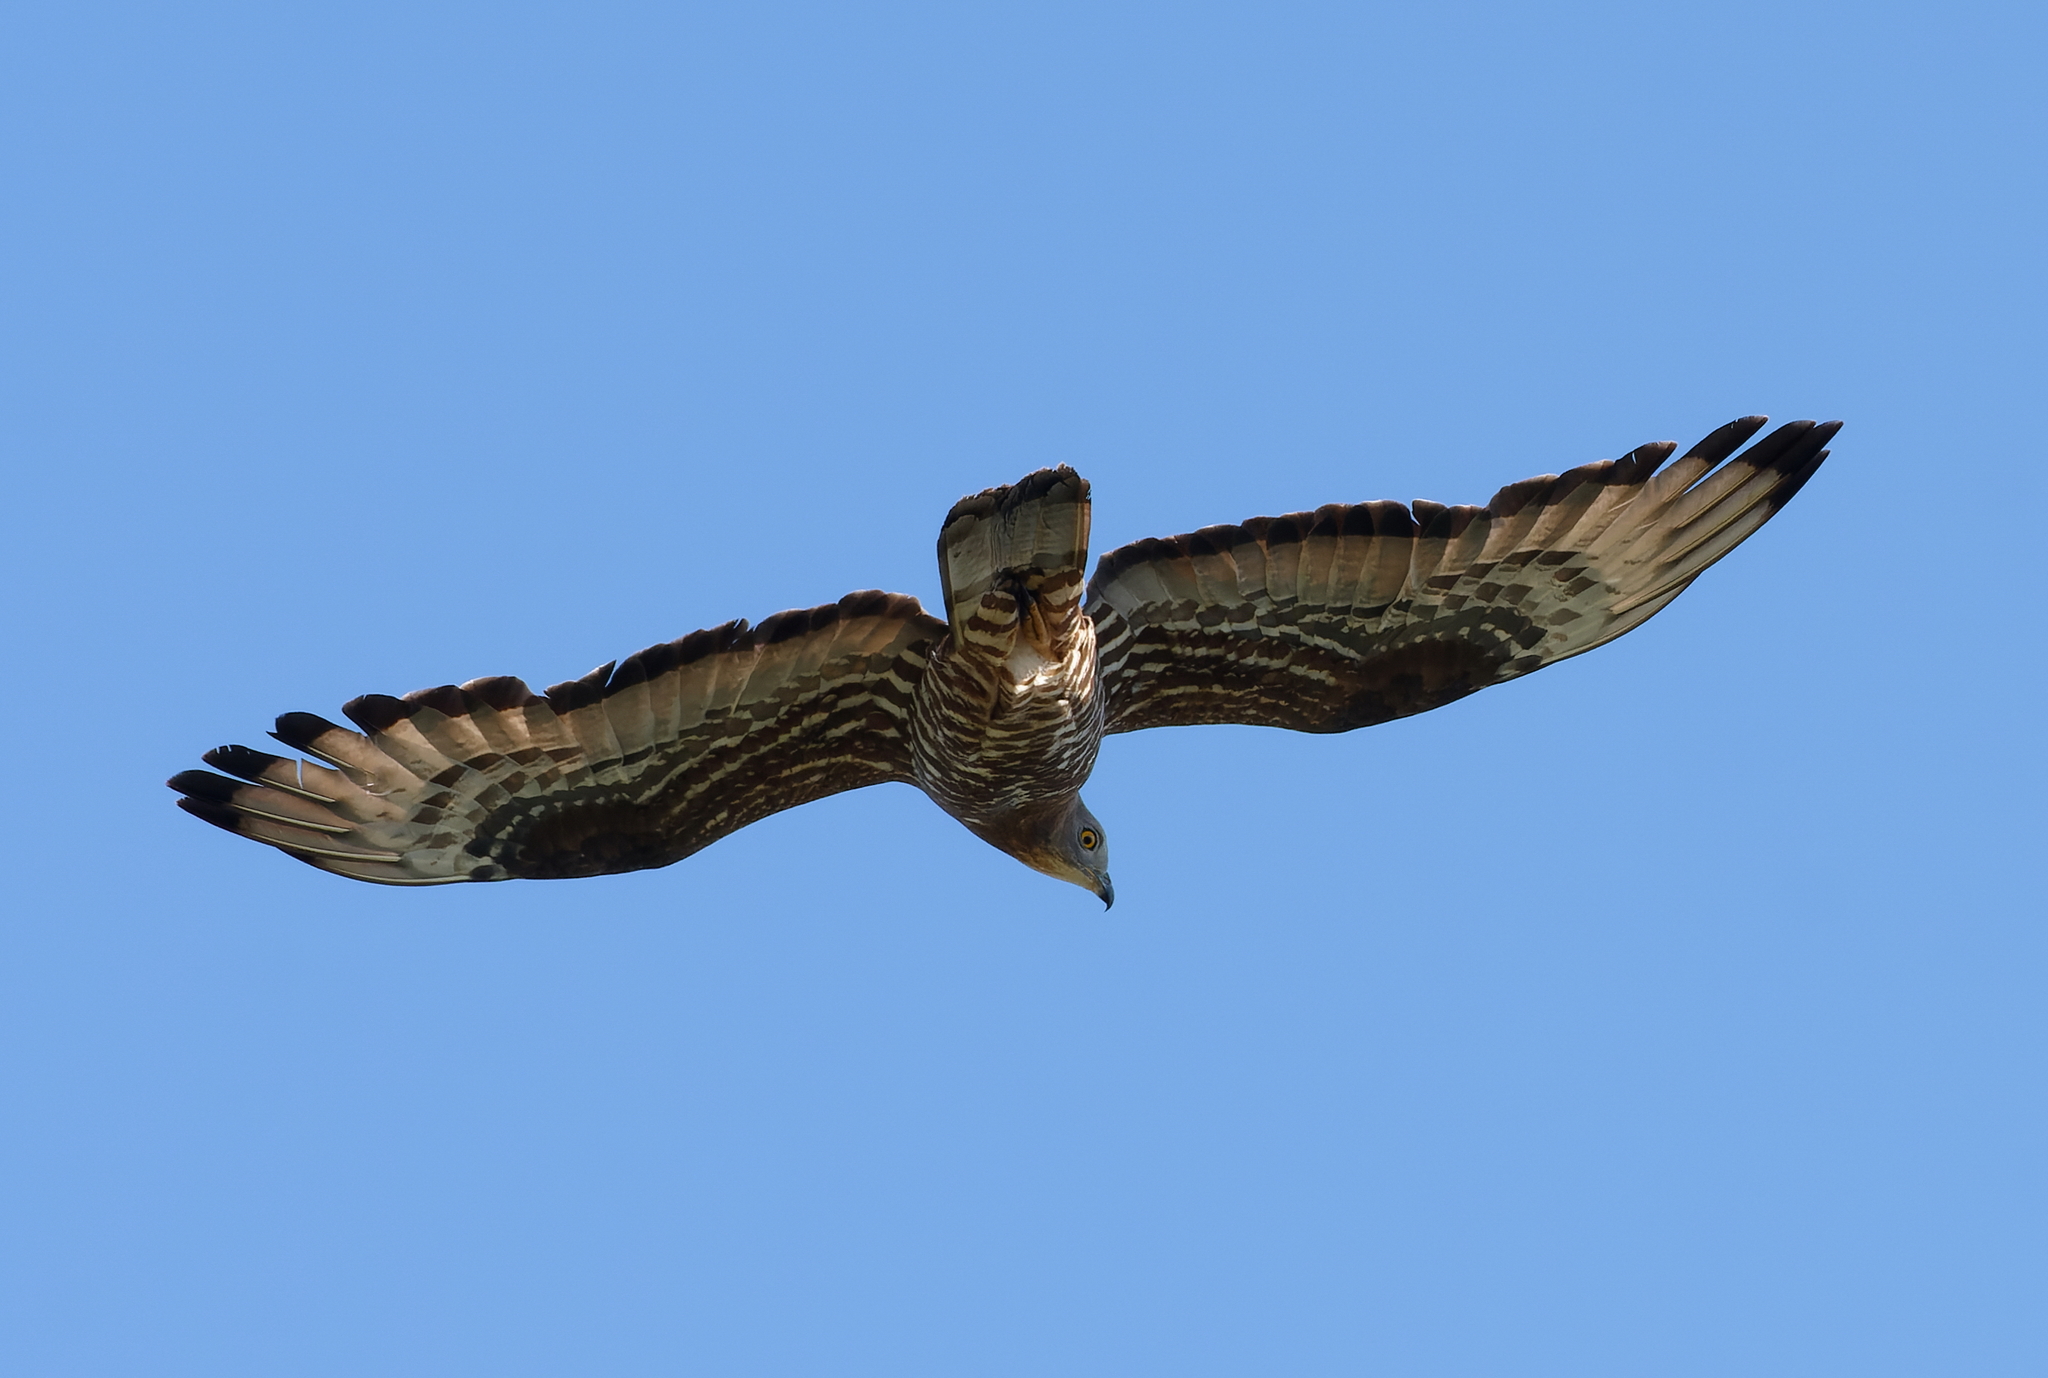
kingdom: Animalia
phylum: Chordata
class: Aves
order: Accipitriformes
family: Accipitridae
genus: Pernis
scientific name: Pernis apivorus
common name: European honey buzzard
